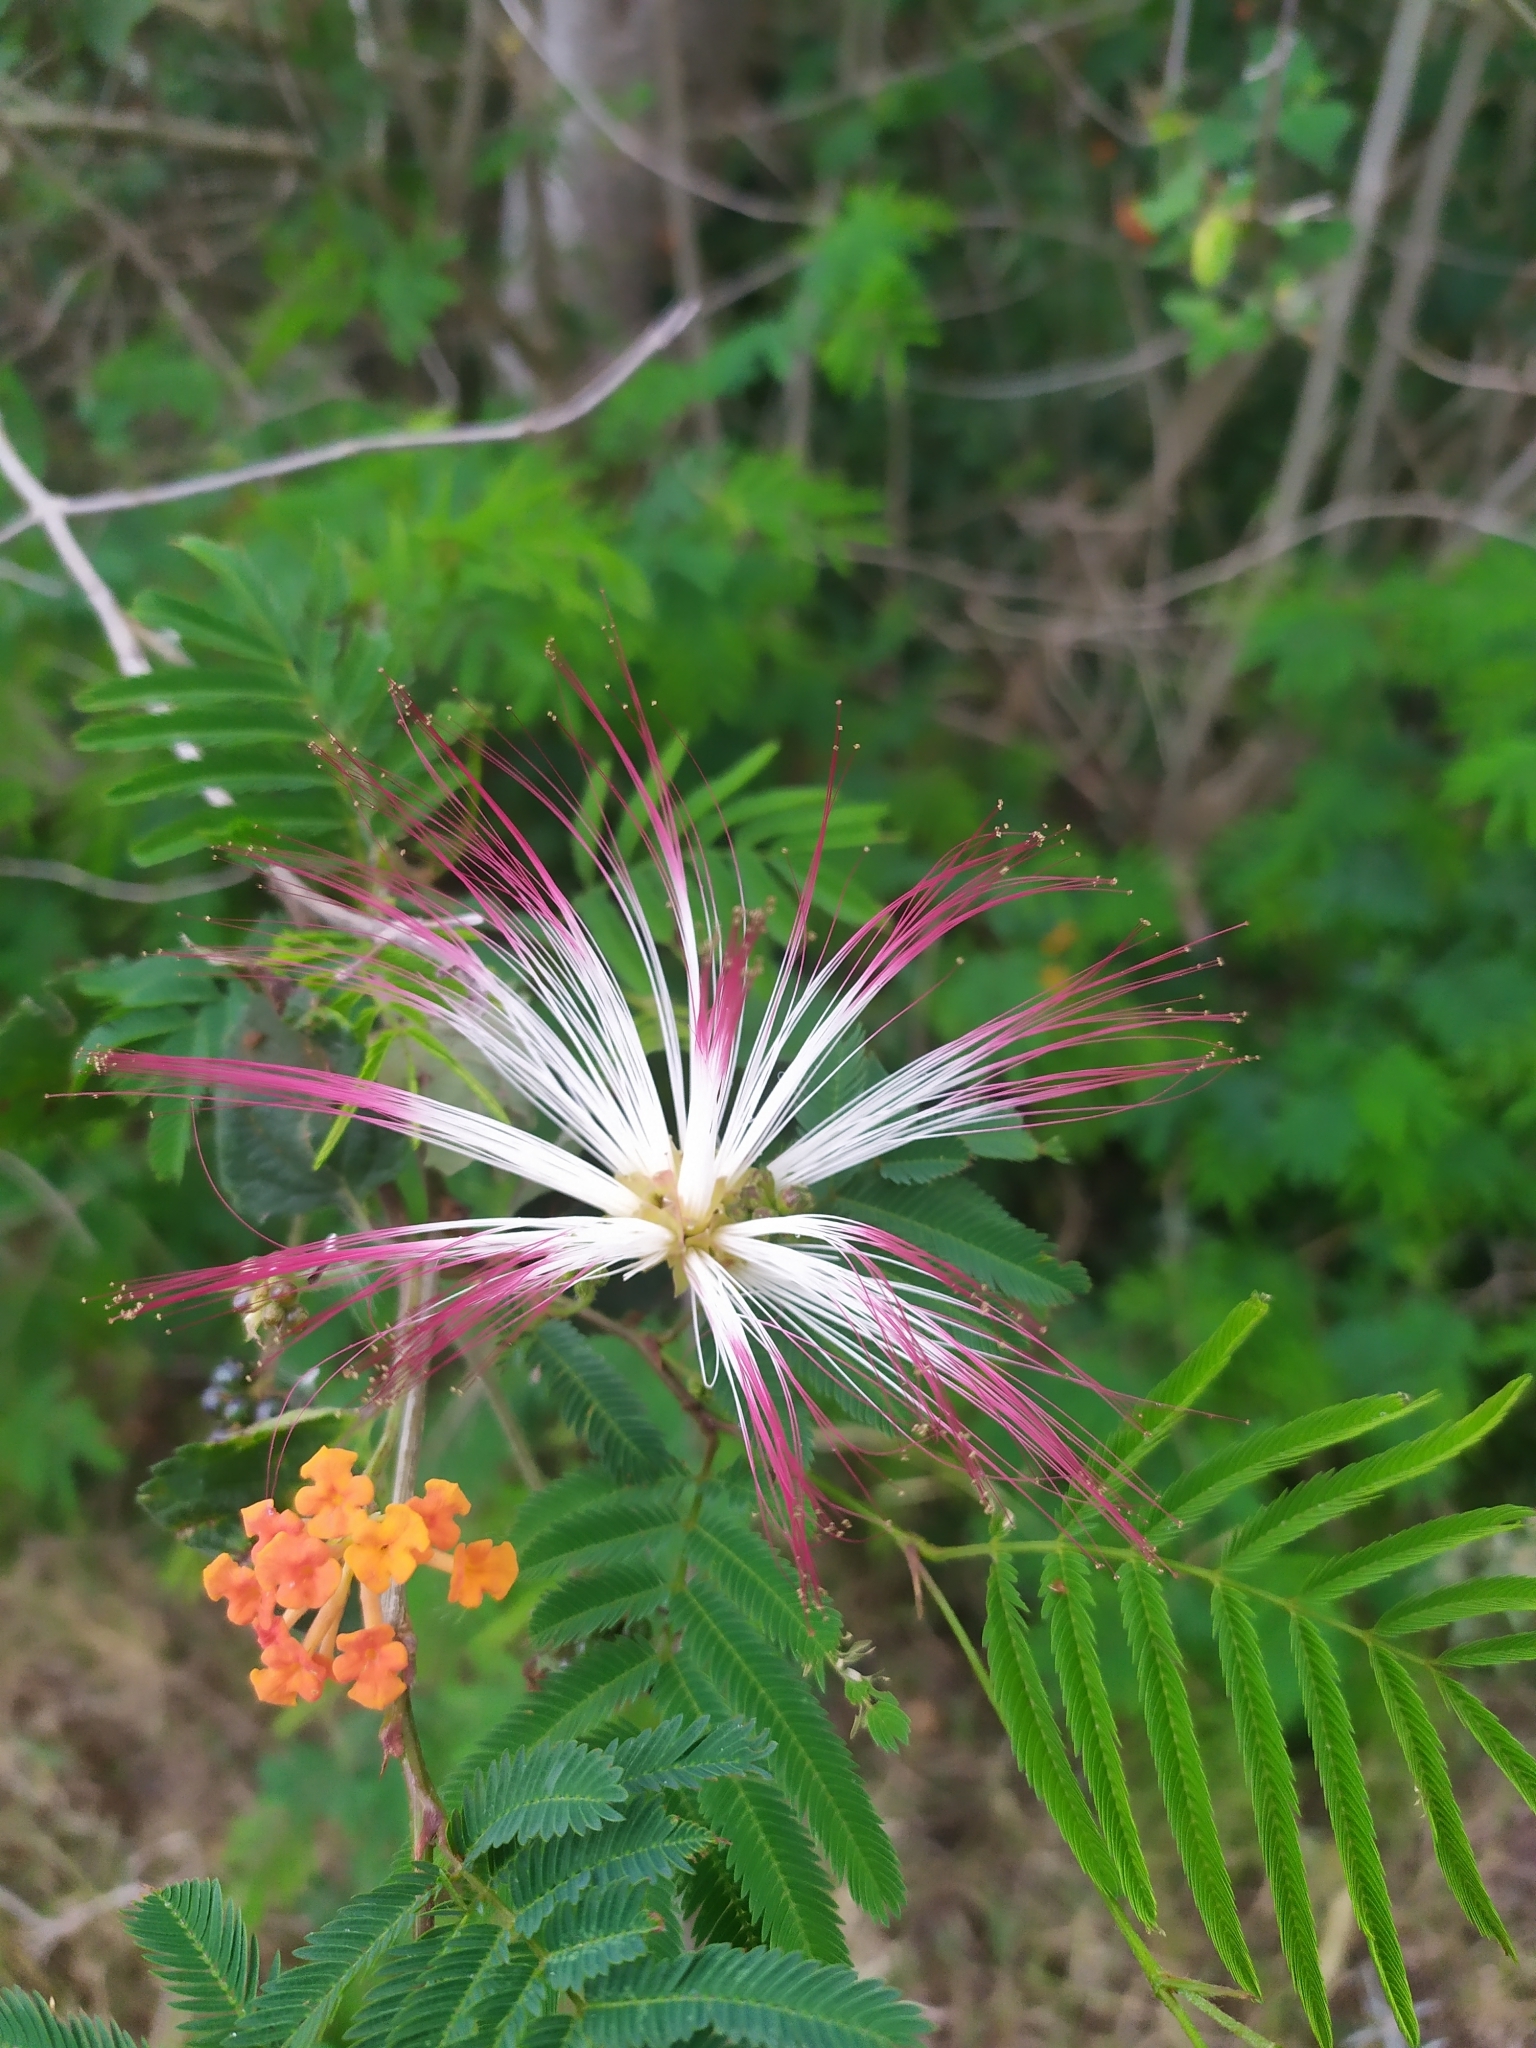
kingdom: Plantae
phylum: Tracheophyta
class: Magnoliopsida
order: Fabales
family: Fabaceae
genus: Calliandra
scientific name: Calliandra parvifolia
